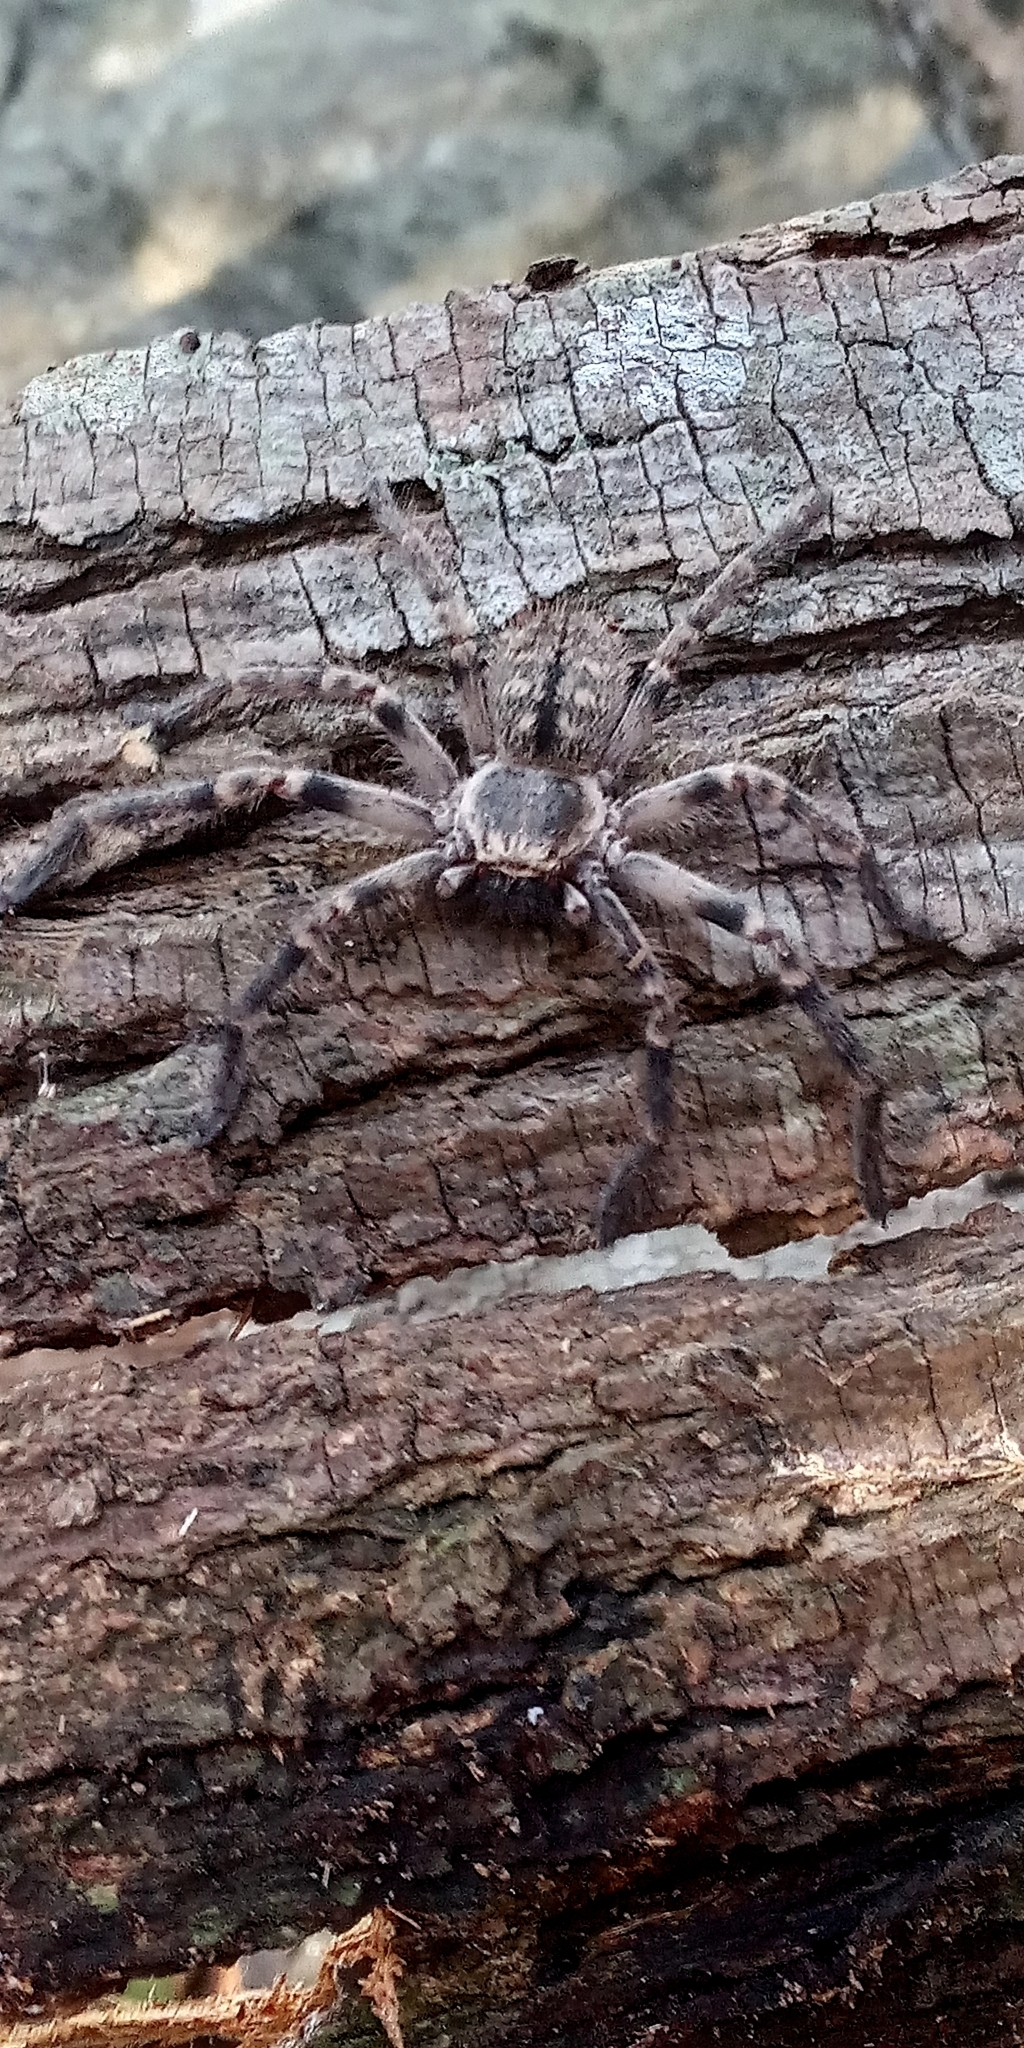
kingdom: Animalia
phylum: Arthropoda
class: Arachnida
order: Araneae
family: Sparassidae
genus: Polybetes
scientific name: Polybetes pythagoricus
